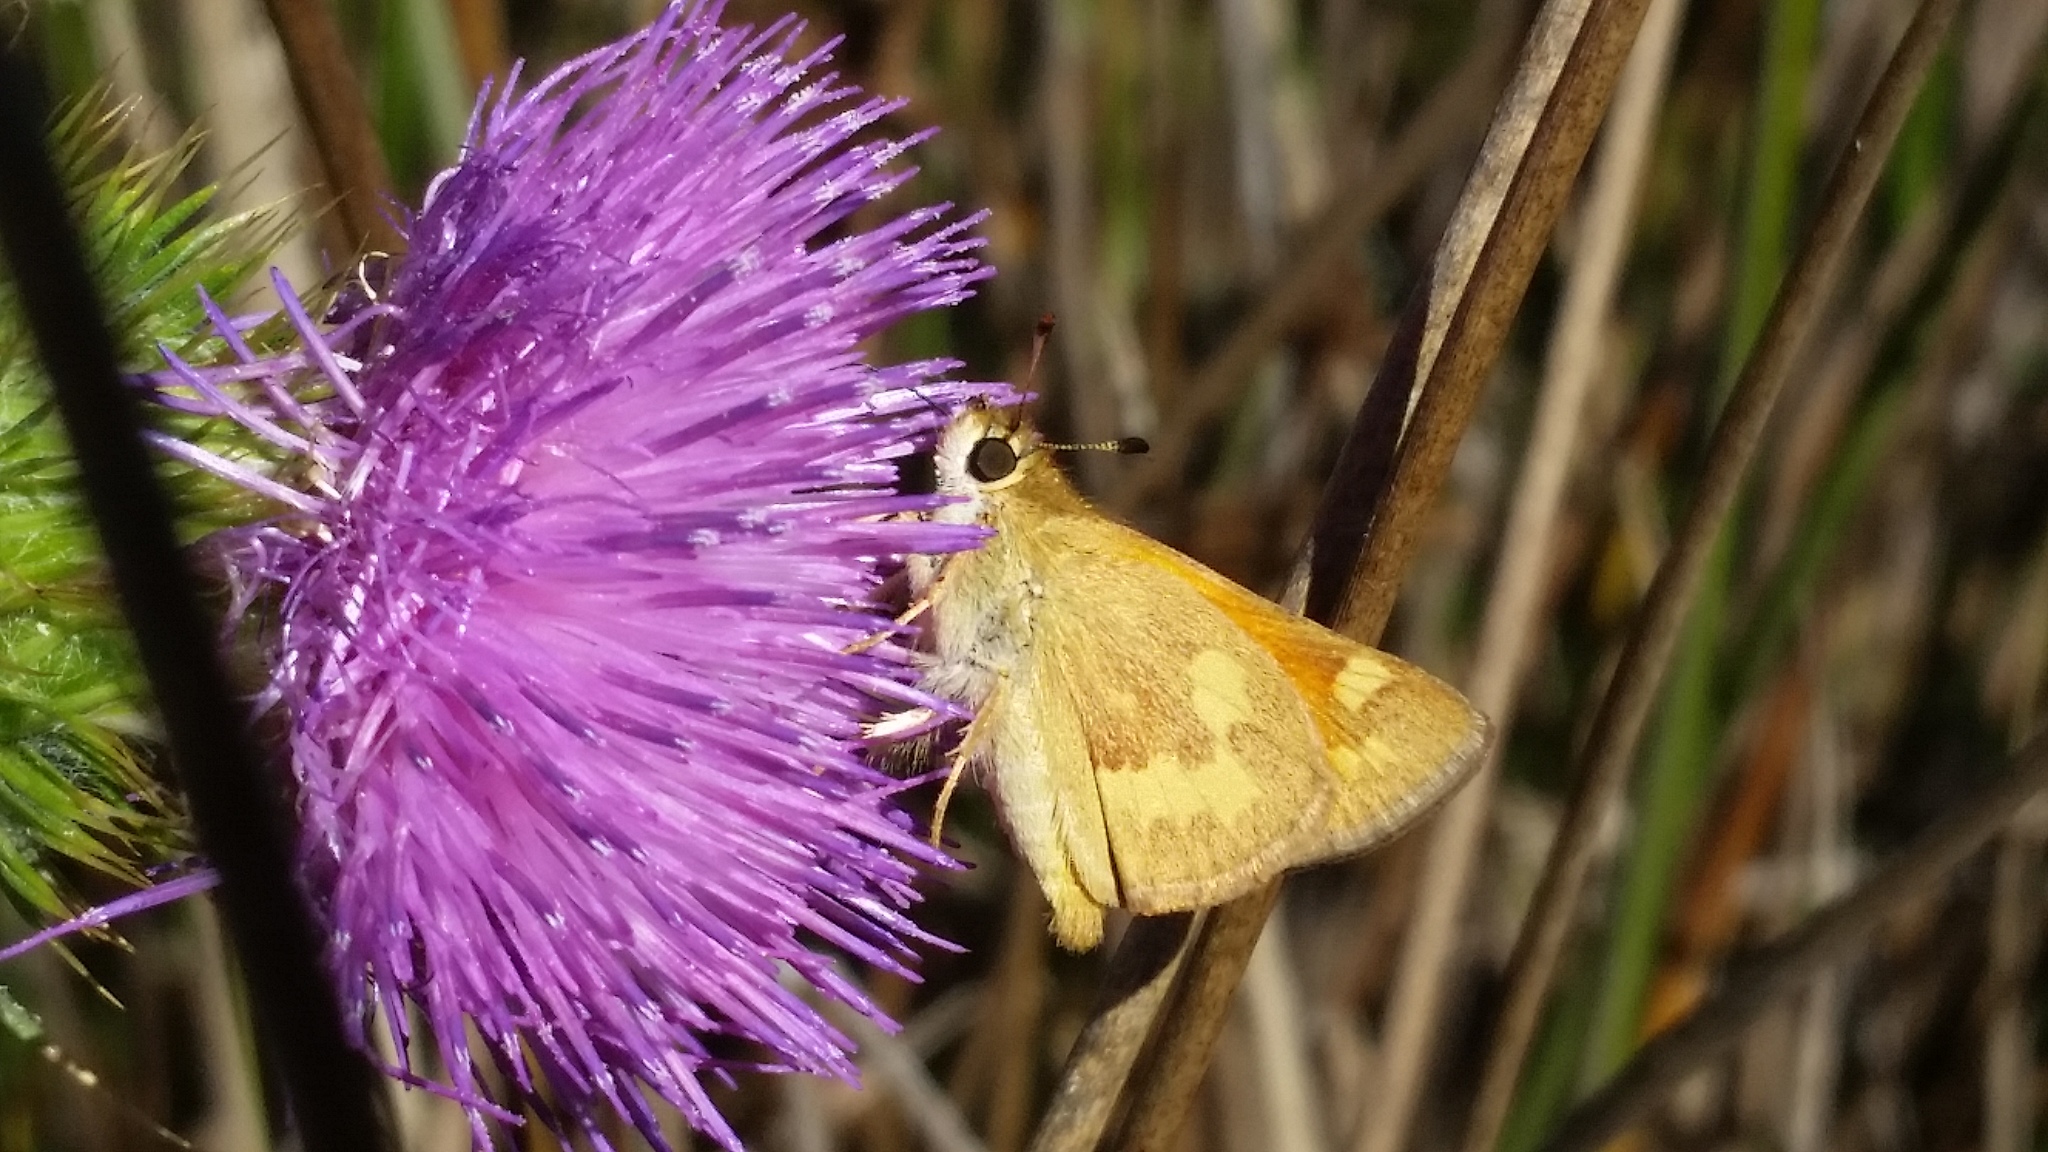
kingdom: Animalia
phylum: Arthropoda
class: Insecta
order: Lepidoptera
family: Hesperiidae
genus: Ochlodes
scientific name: Ochlodes sylvanoides
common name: Woodland skipper
